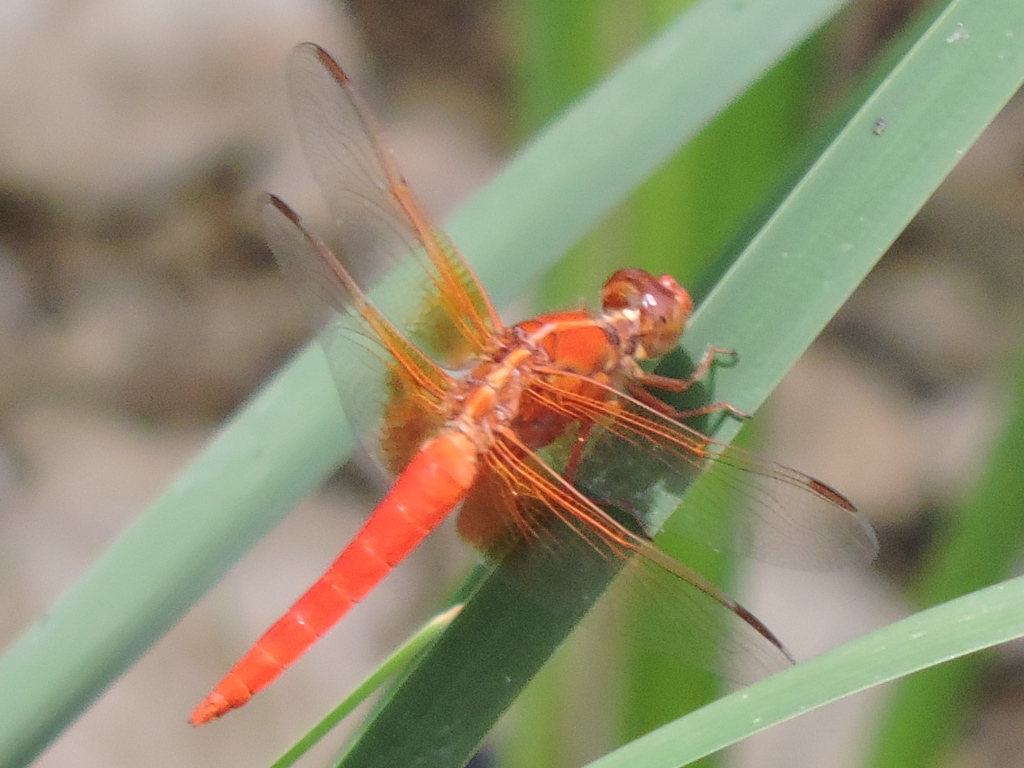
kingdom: Animalia
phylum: Arthropoda
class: Insecta
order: Odonata
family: Libellulidae
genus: Libellula
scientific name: Libellula croceipennis
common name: Neon skimmer
